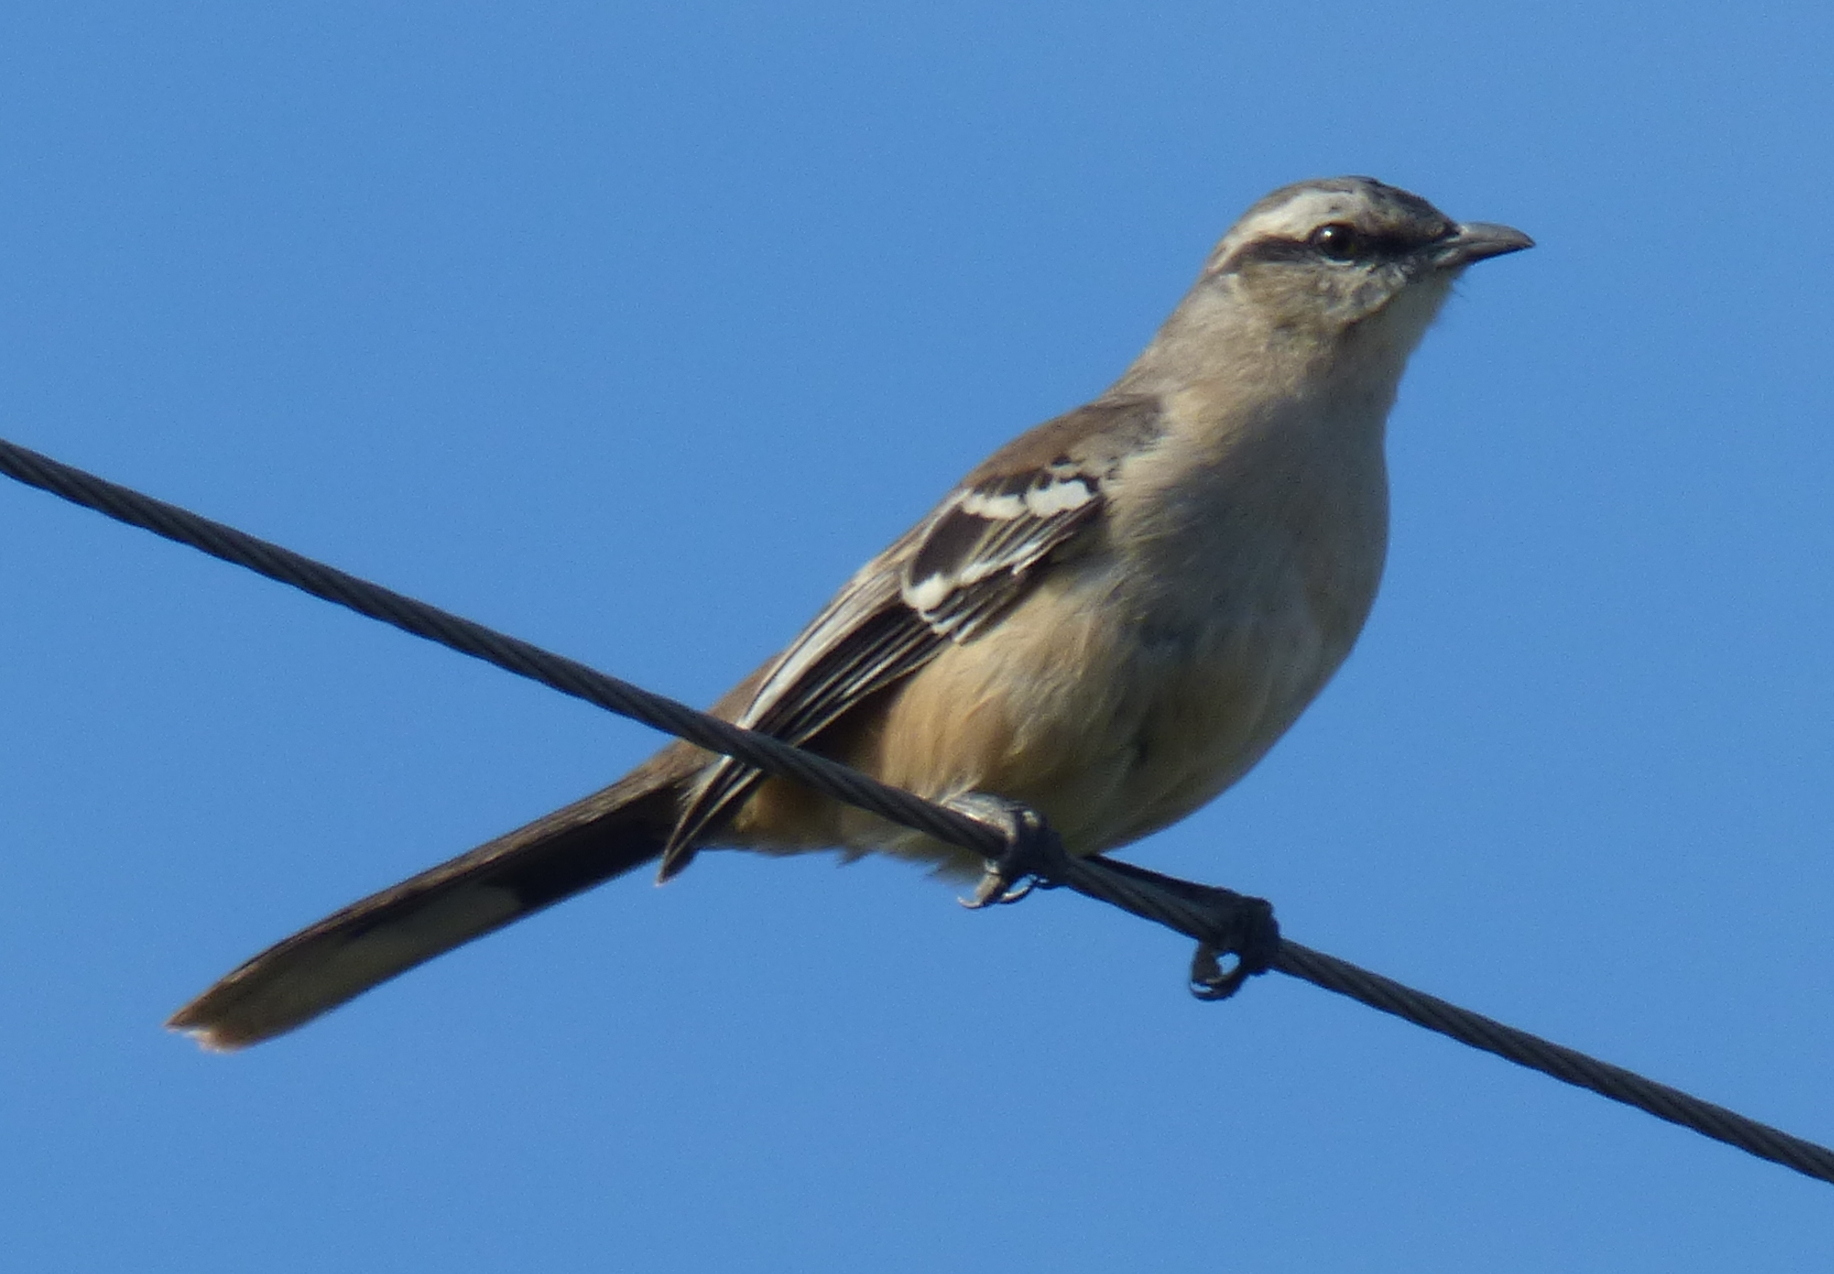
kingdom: Animalia
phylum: Chordata
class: Aves
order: Passeriformes
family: Mimidae
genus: Mimus
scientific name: Mimus saturninus
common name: Chalk-browed mockingbird
